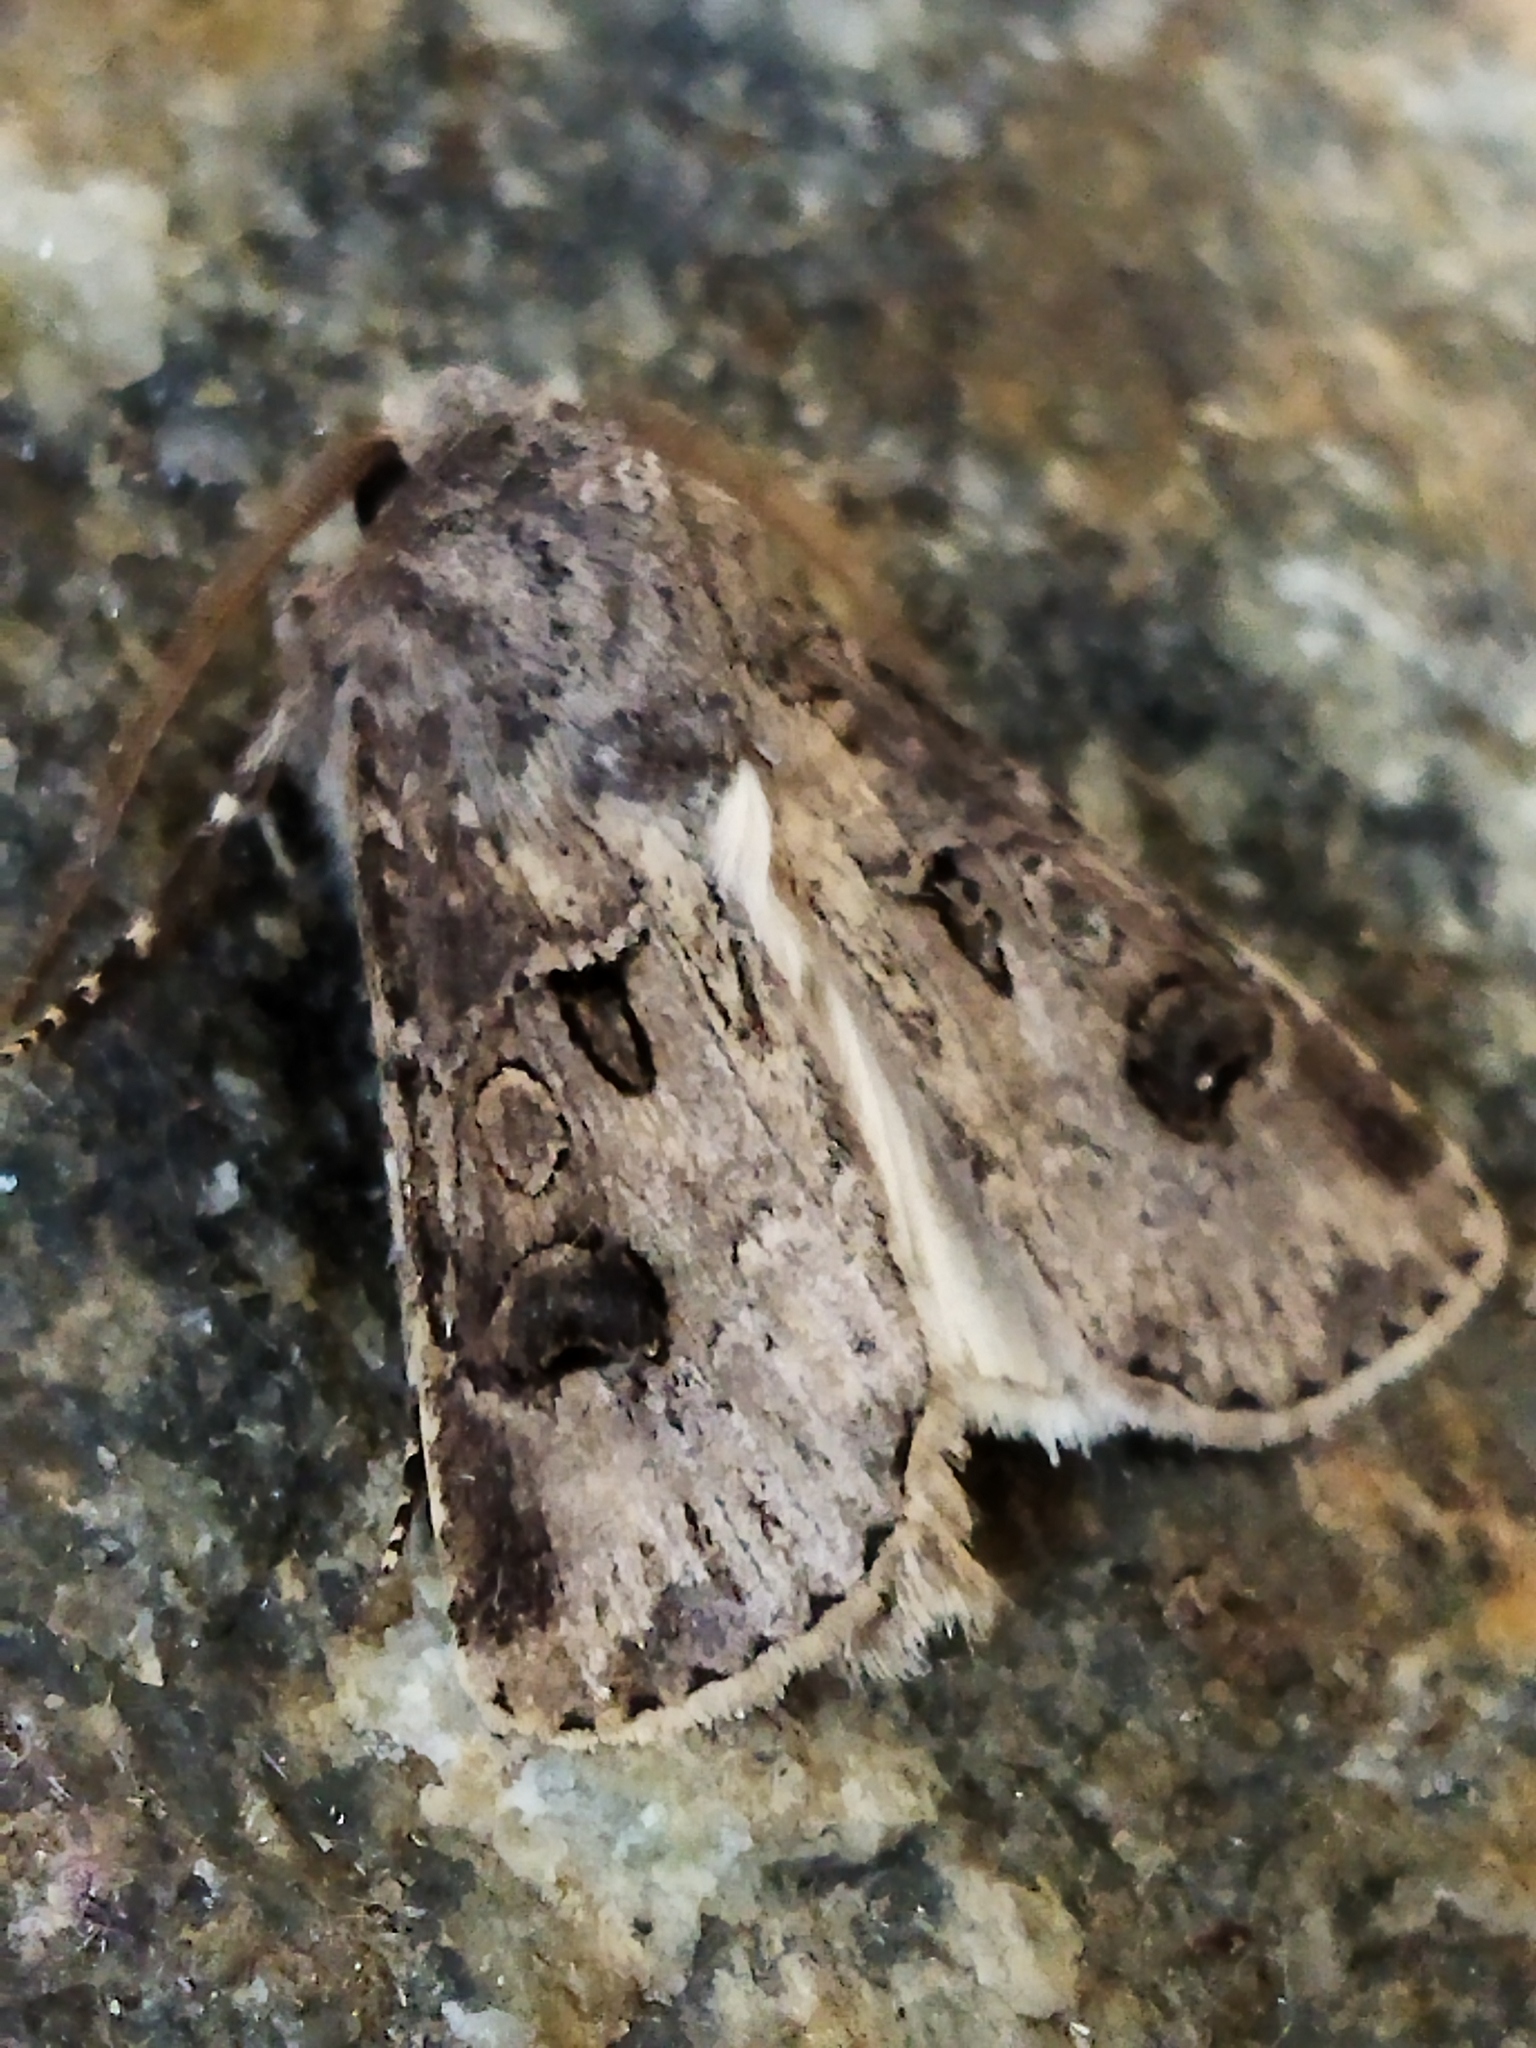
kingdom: Animalia
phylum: Arthropoda
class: Insecta
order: Lepidoptera
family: Noctuidae
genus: Agrotis
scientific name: Agrotis bigramma
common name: Great dart
